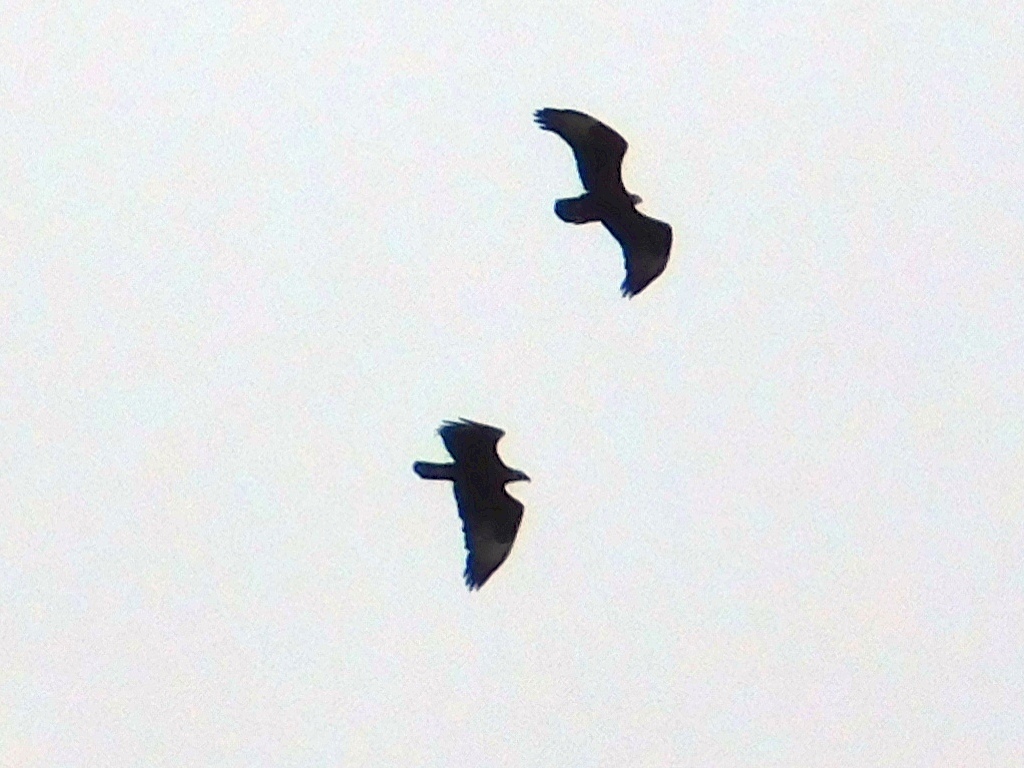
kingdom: Animalia
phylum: Chordata
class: Aves
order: Accipitriformes
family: Accipitridae
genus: Aquila
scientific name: Aquila verreauxii
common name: Verreaux's eagle
